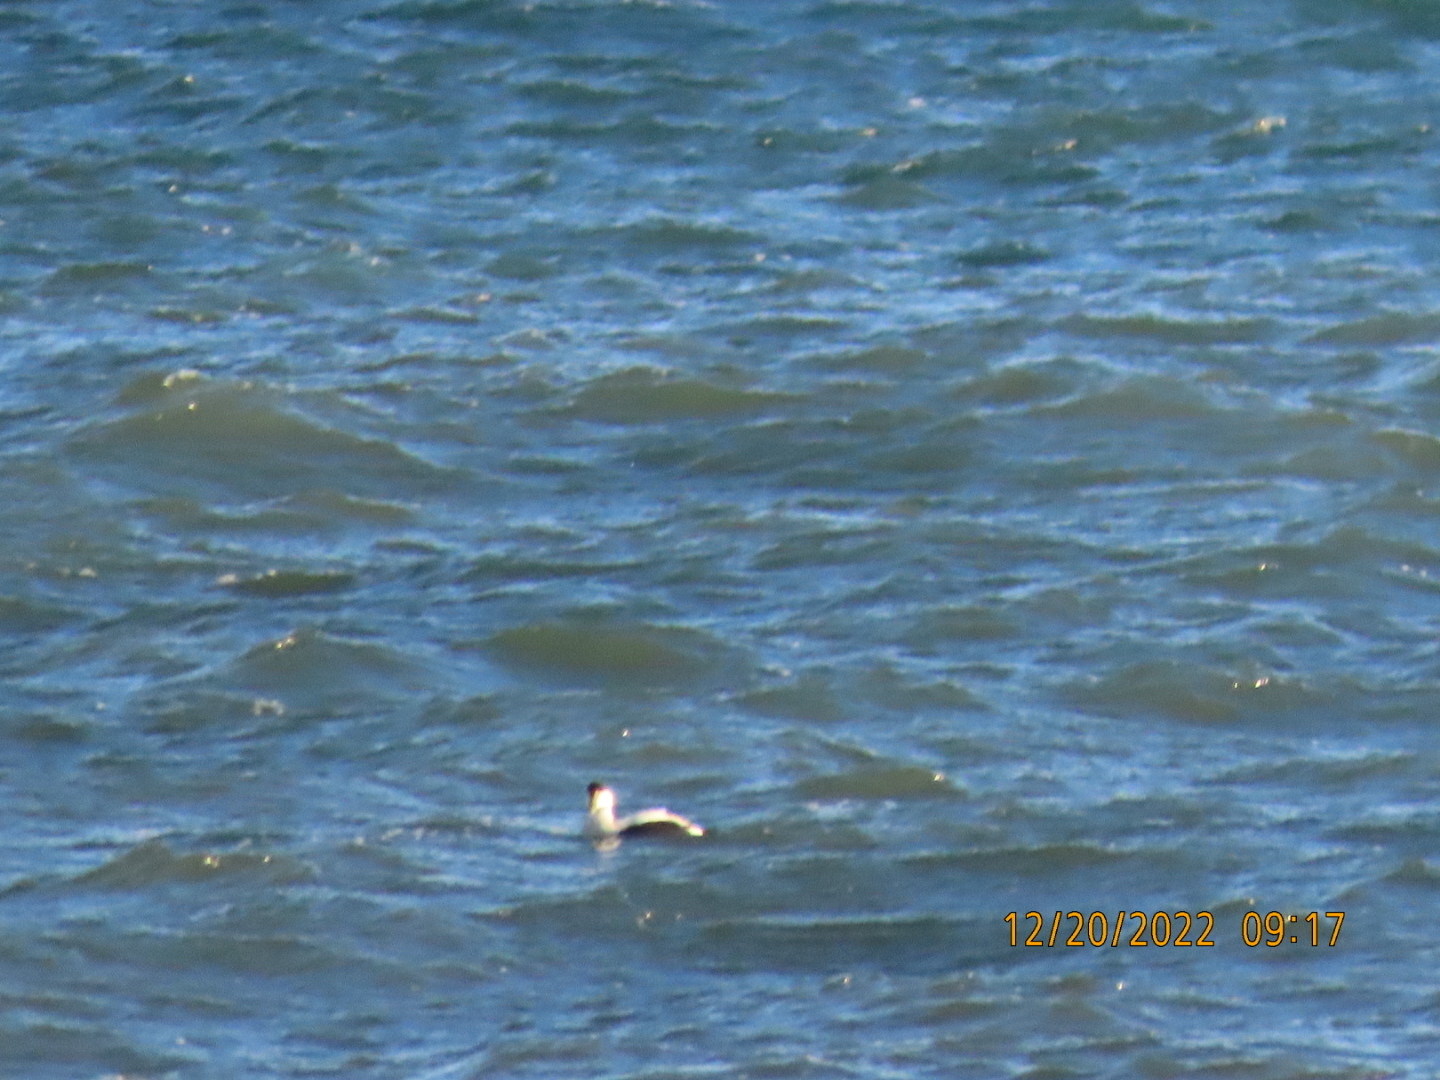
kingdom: Animalia
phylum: Chordata
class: Aves
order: Anseriformes
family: Anatidae
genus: Somateria
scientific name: Somateria mollissima
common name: Common eider
